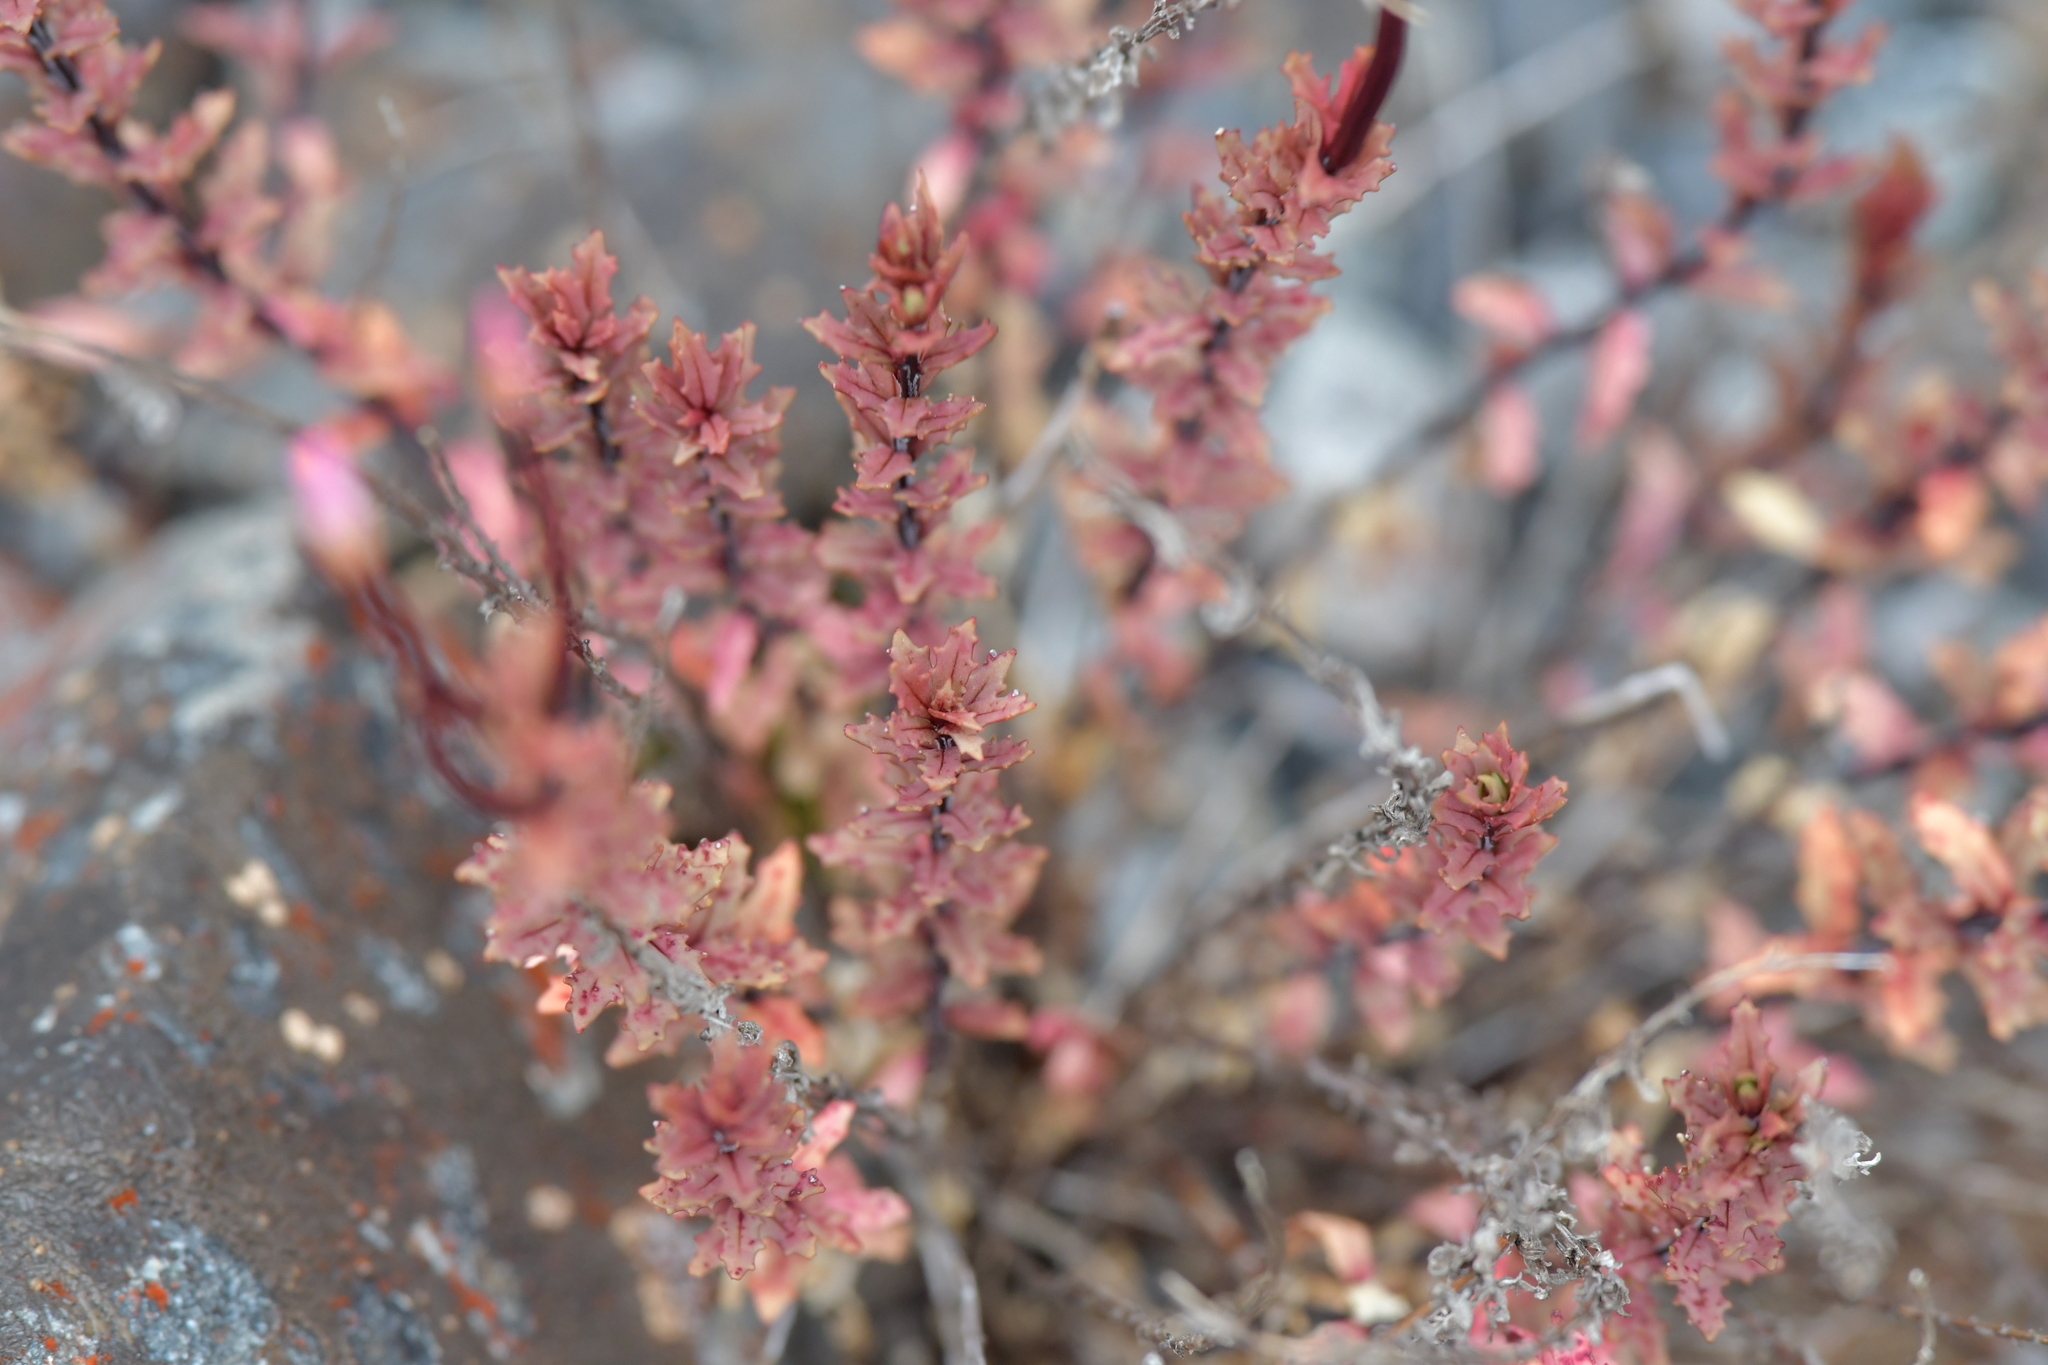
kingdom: Plantae
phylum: Tracheophyta
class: Magnoliopsida
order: Myrtales
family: Onagraceae
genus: Epilobium
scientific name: Epilobium melanocaulon
